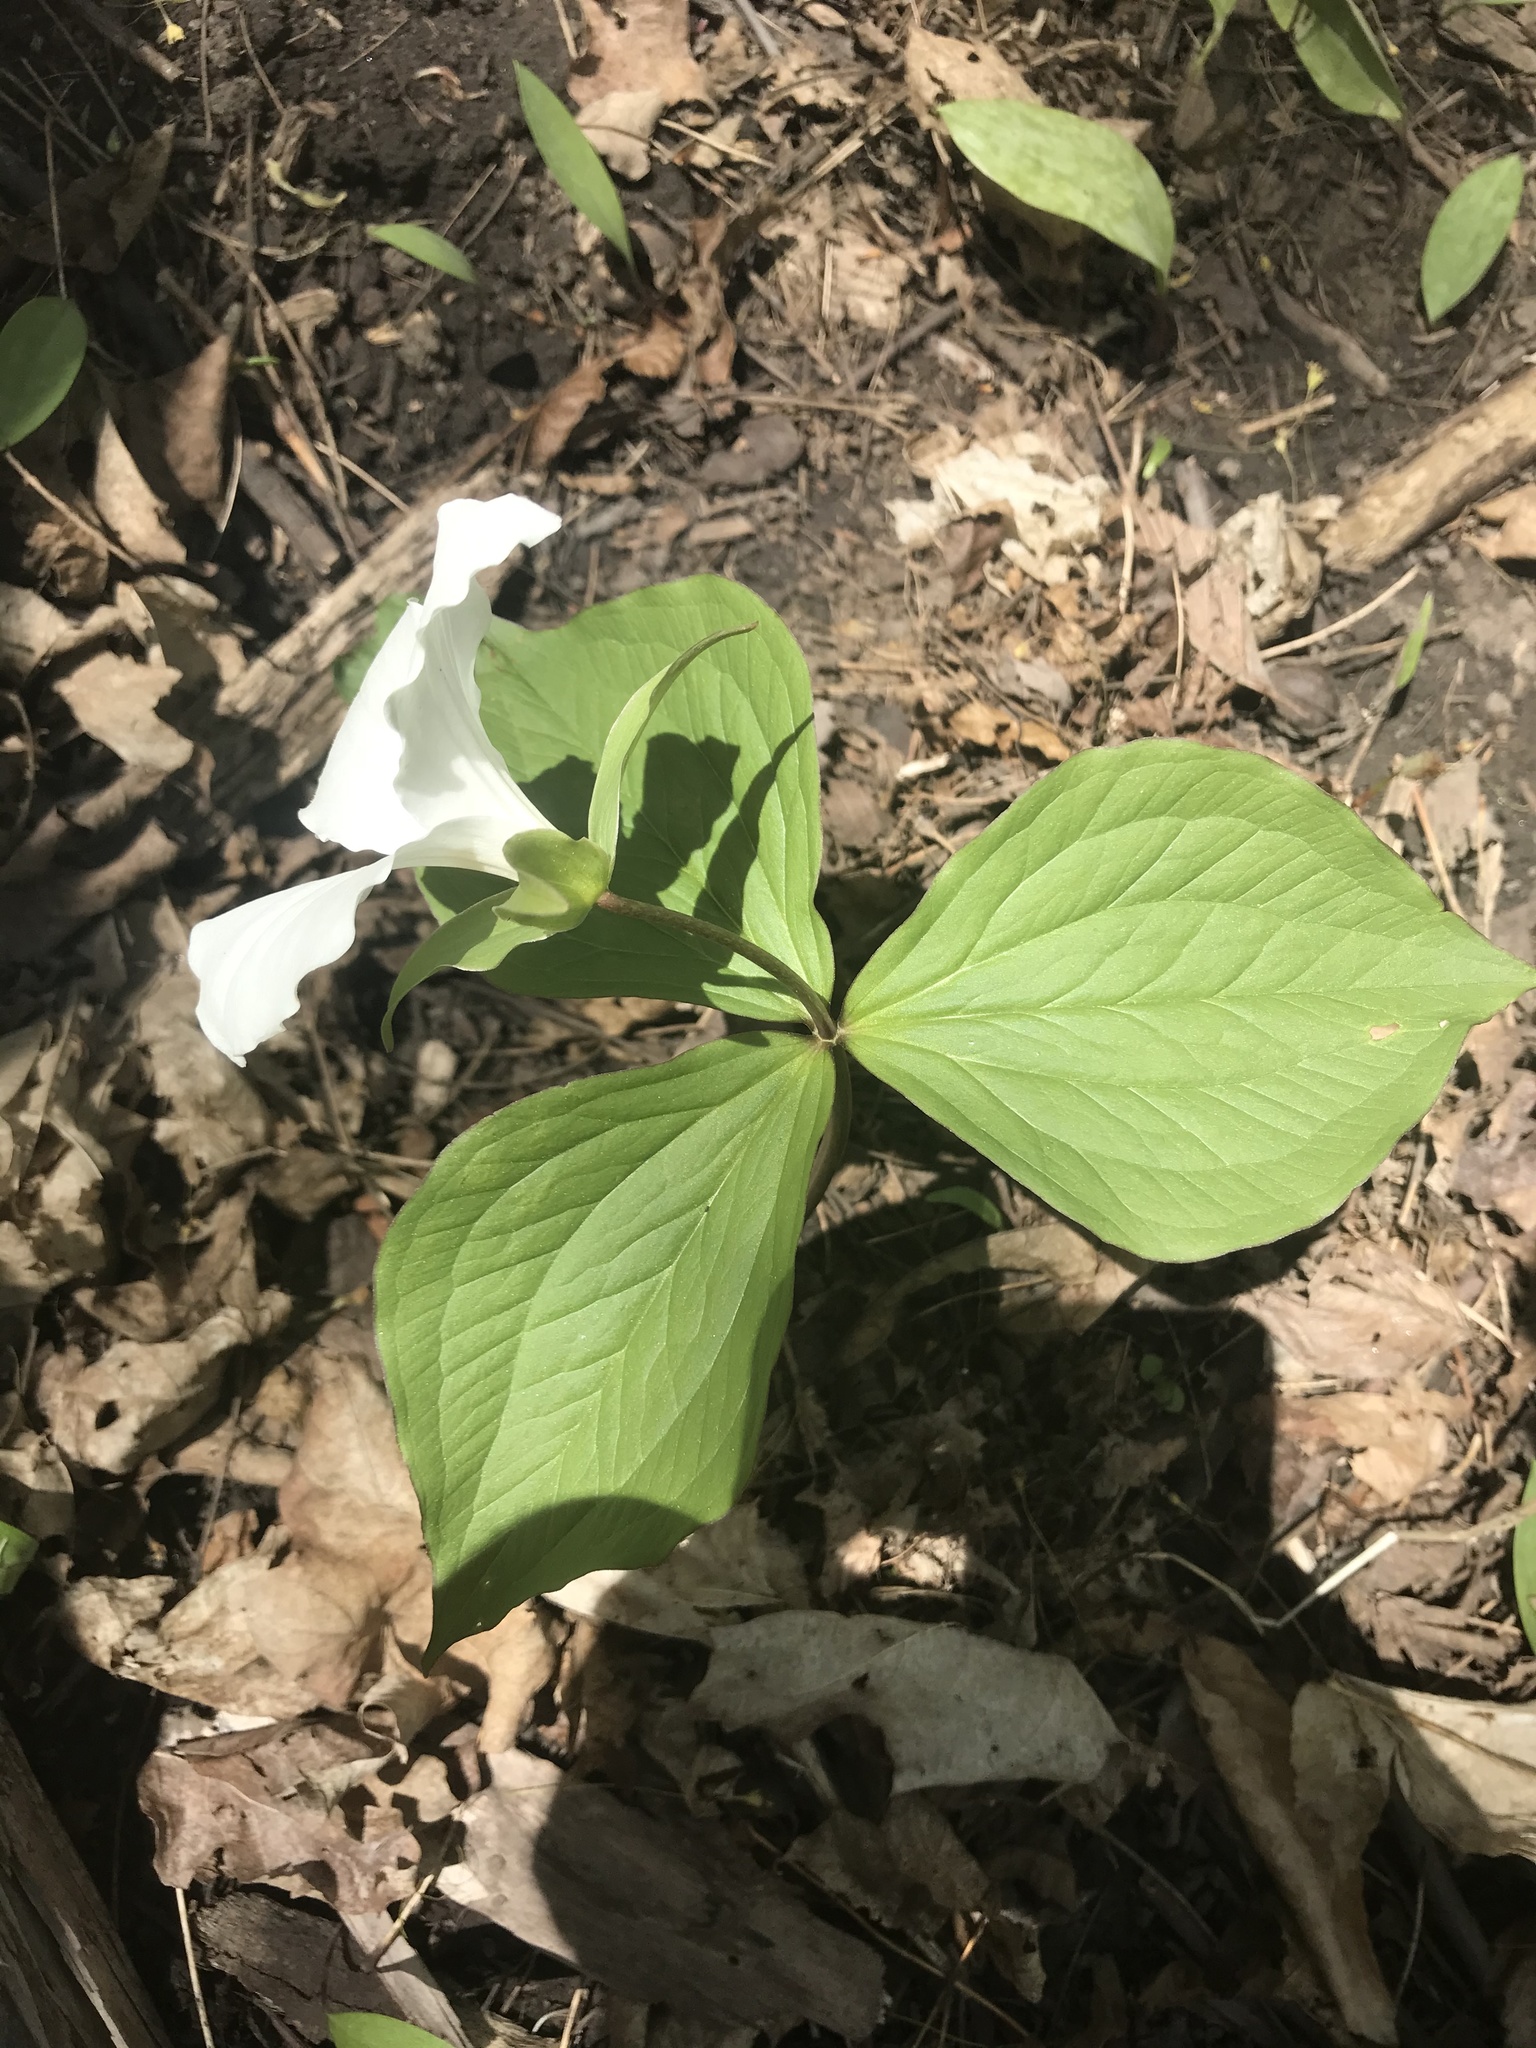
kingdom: Plantae
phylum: Tracheophyta
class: Liliopsida
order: Liliales
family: Melanthiaceae
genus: Trillium
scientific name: Trillium grandiflorum
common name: Great white trillium
